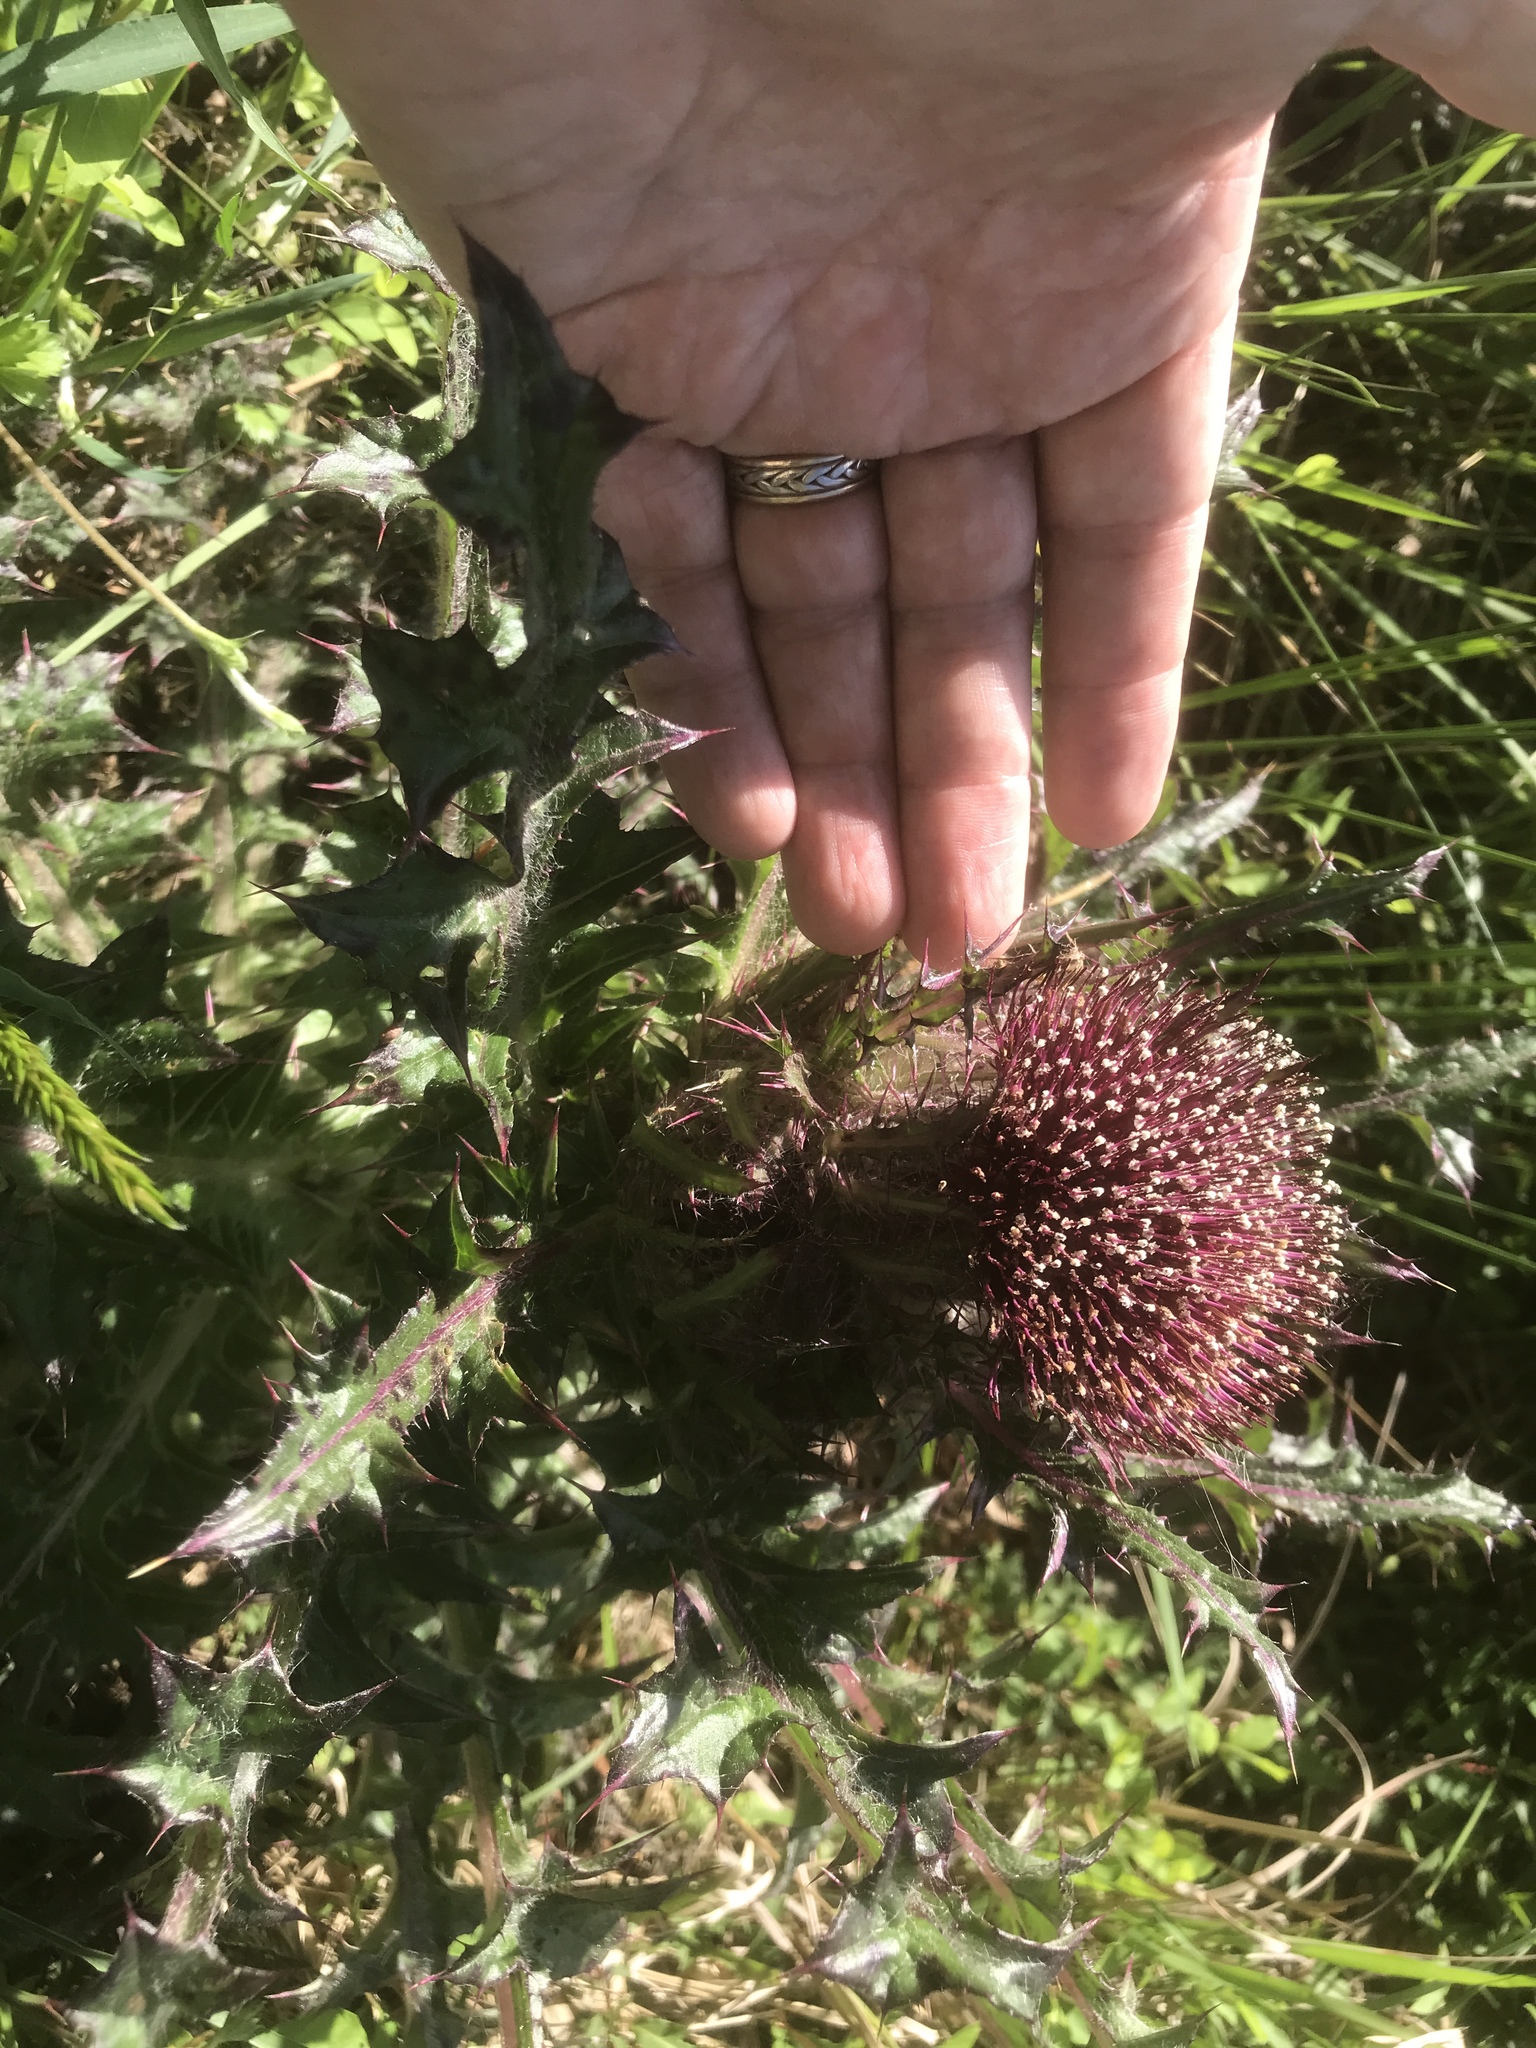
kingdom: Plantae
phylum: Tracheophyta
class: Magnoliopsida
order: Asterales
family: Asteraceae
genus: Cirsium
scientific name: Cirsium horridulum
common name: Bristly thistle
